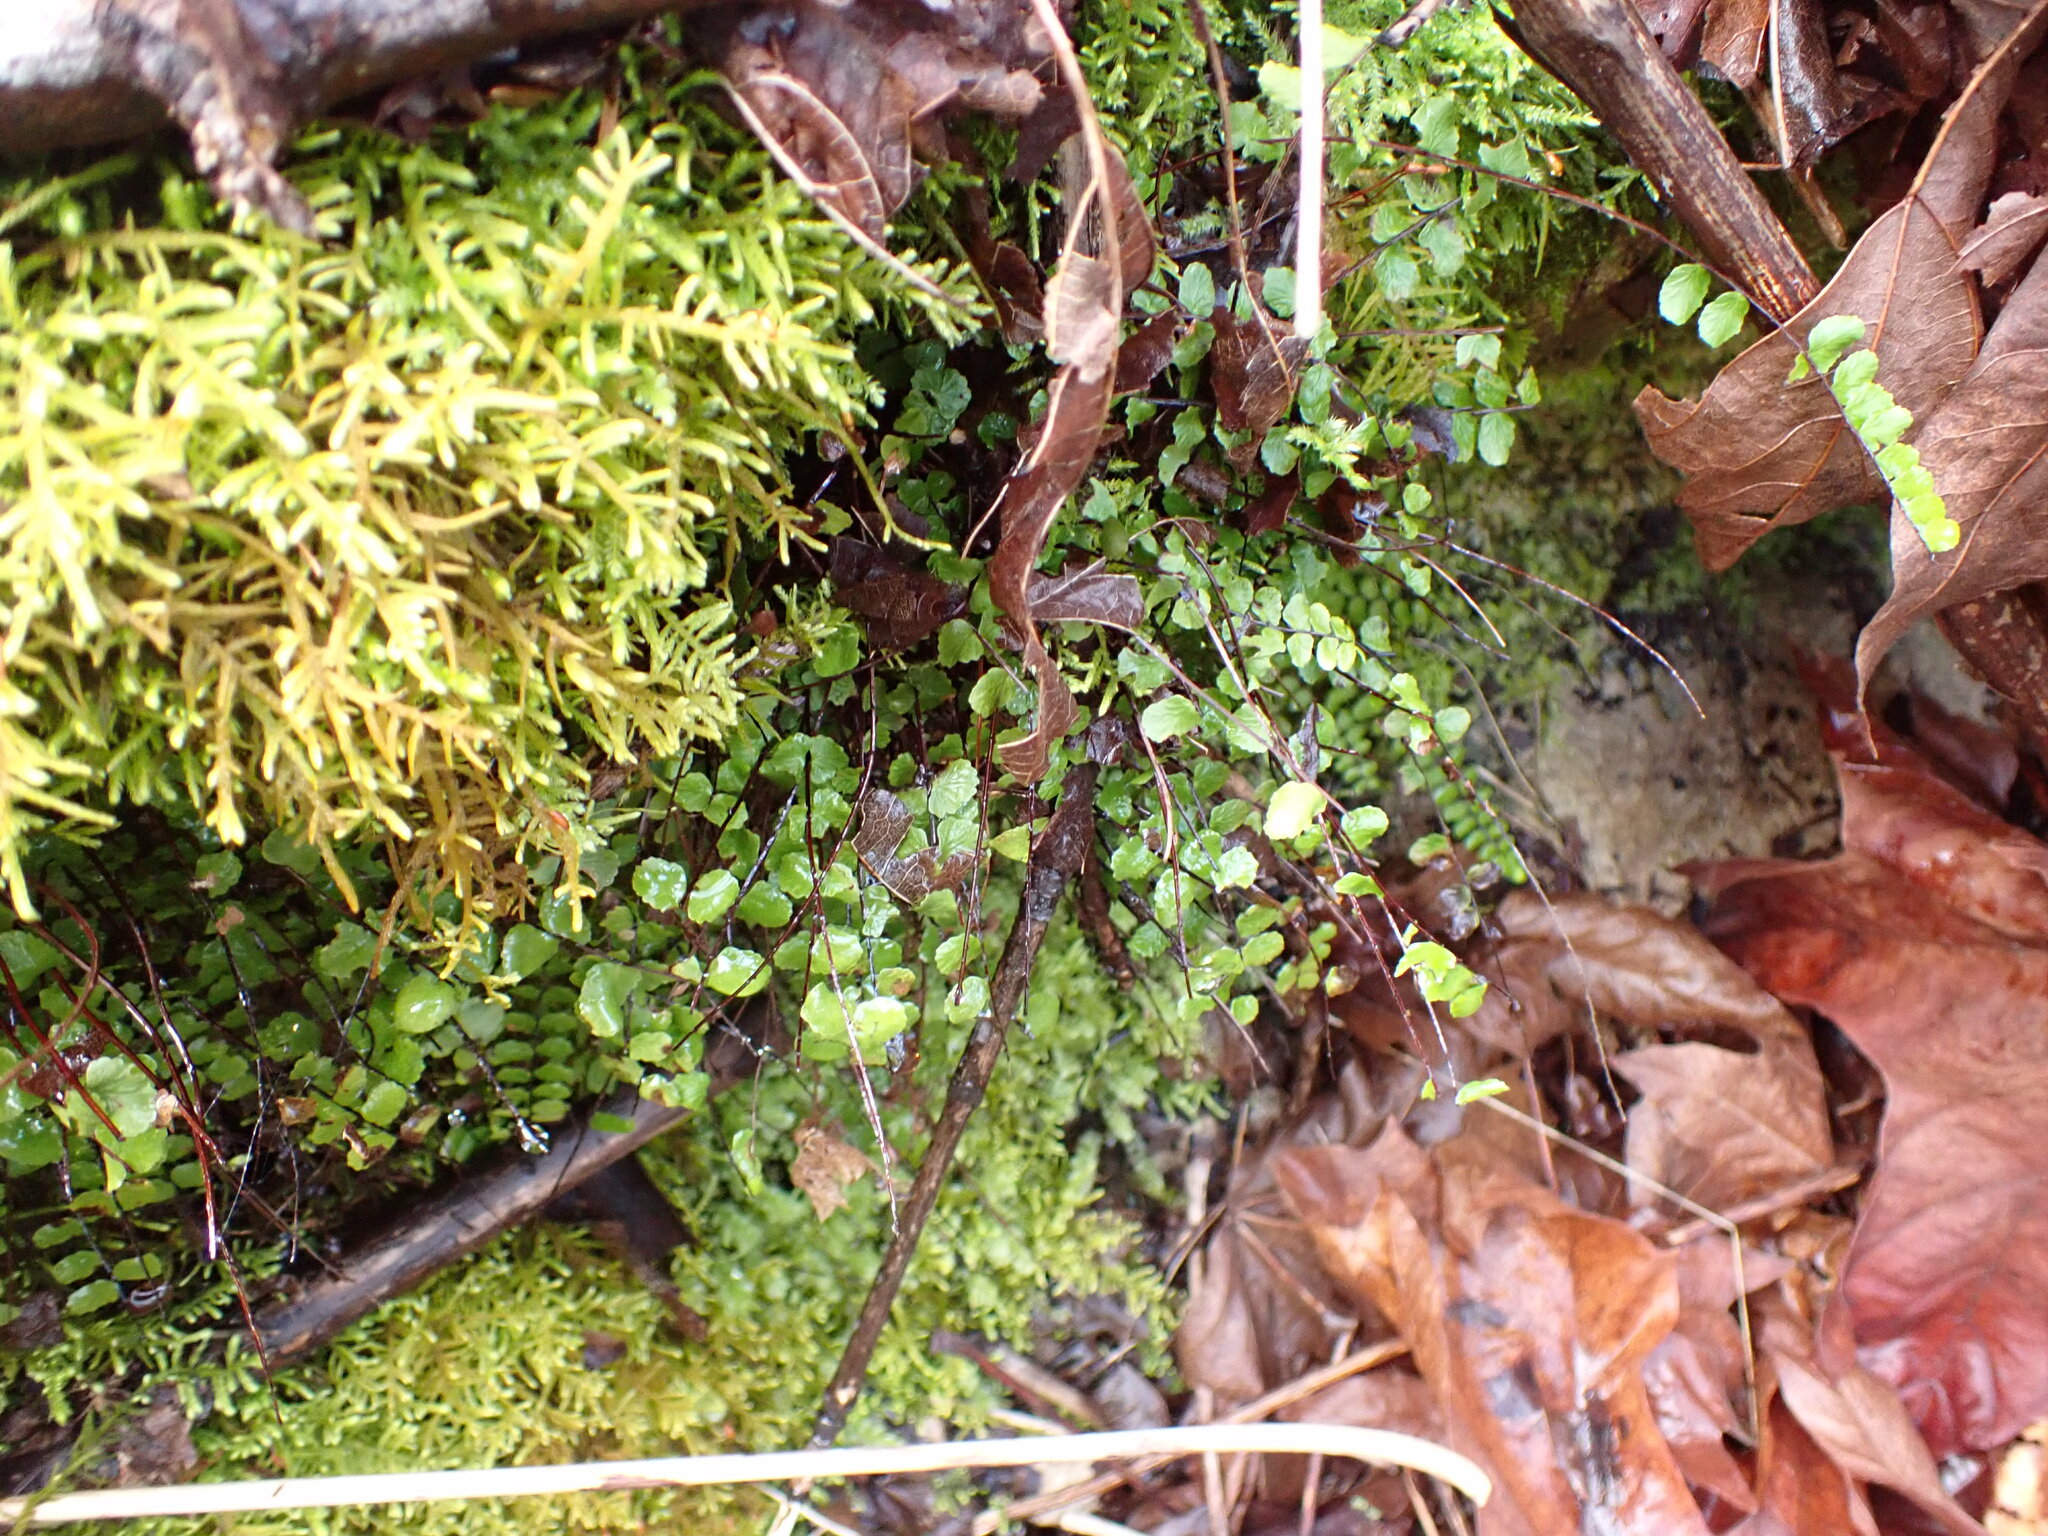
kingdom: Plantae
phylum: Tracheophyta
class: Polypodiopsida
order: Polypodiales
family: Aspleniaceae
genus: Asplenium
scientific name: Asplenium trichomanes
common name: Maidenhair spleenwort
